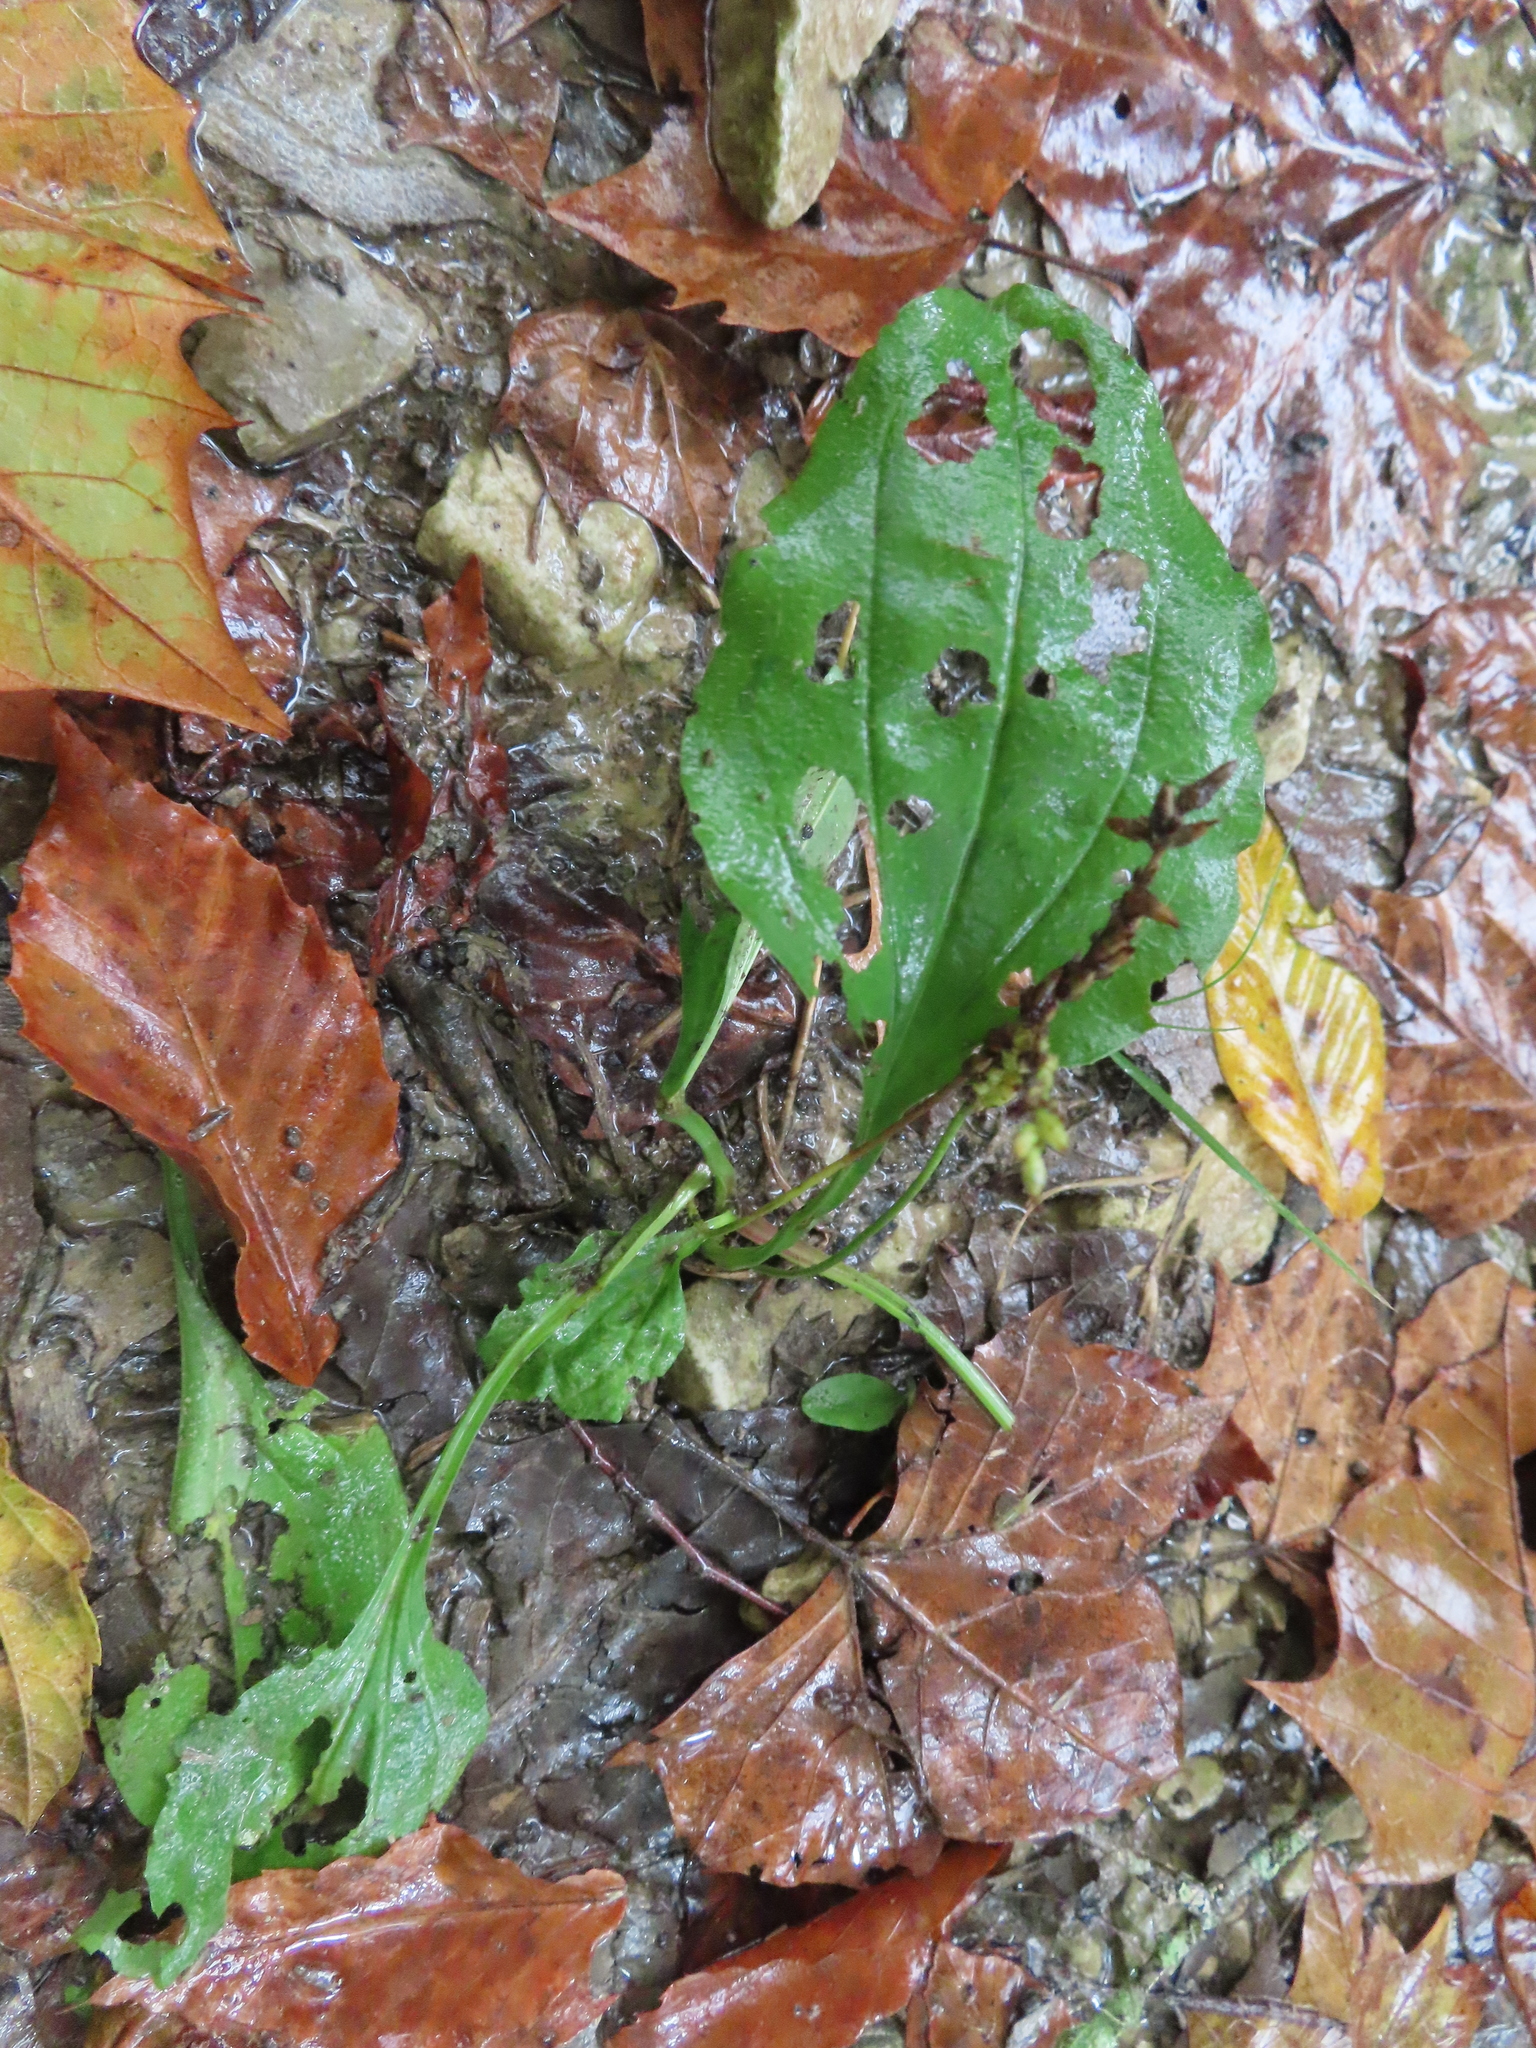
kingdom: Plantae
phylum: Tracheophyta
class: Magnoliopsida
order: Lamiales
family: Plantaginaceae
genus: Plantago
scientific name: Plantago rugelii
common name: American plantain
